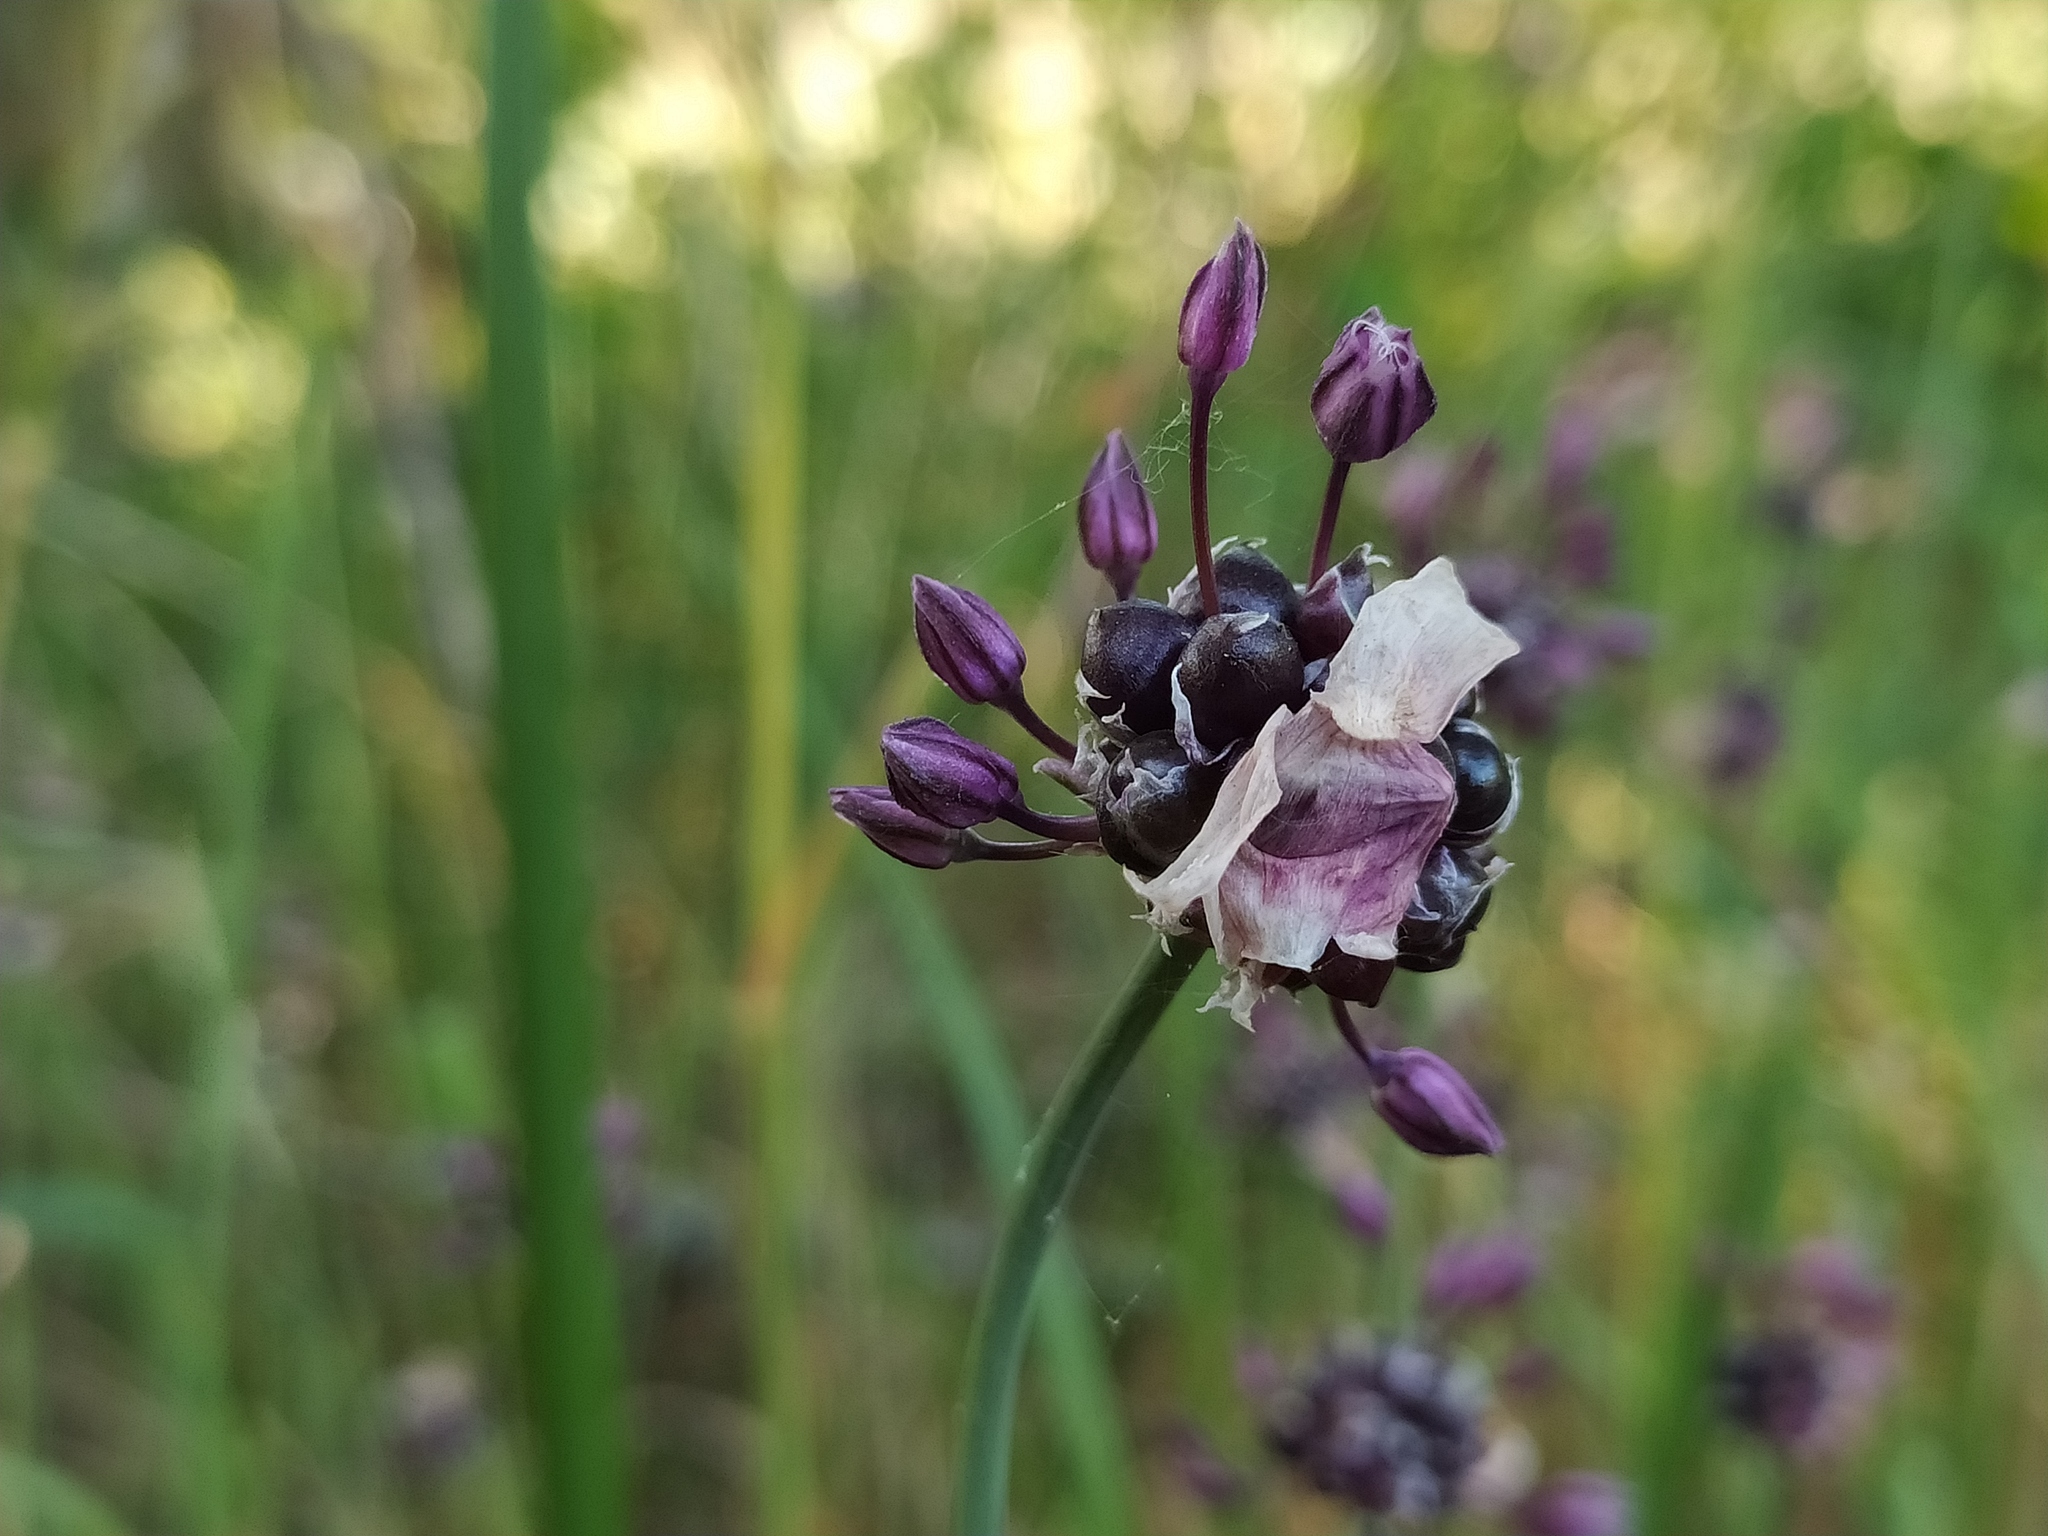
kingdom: Plantae
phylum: Tracheophyta
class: Liliopsida
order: Asparagales
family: Amaryllidaceae
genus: Allium
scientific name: Allium scorodoprasum
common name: Sand leek
